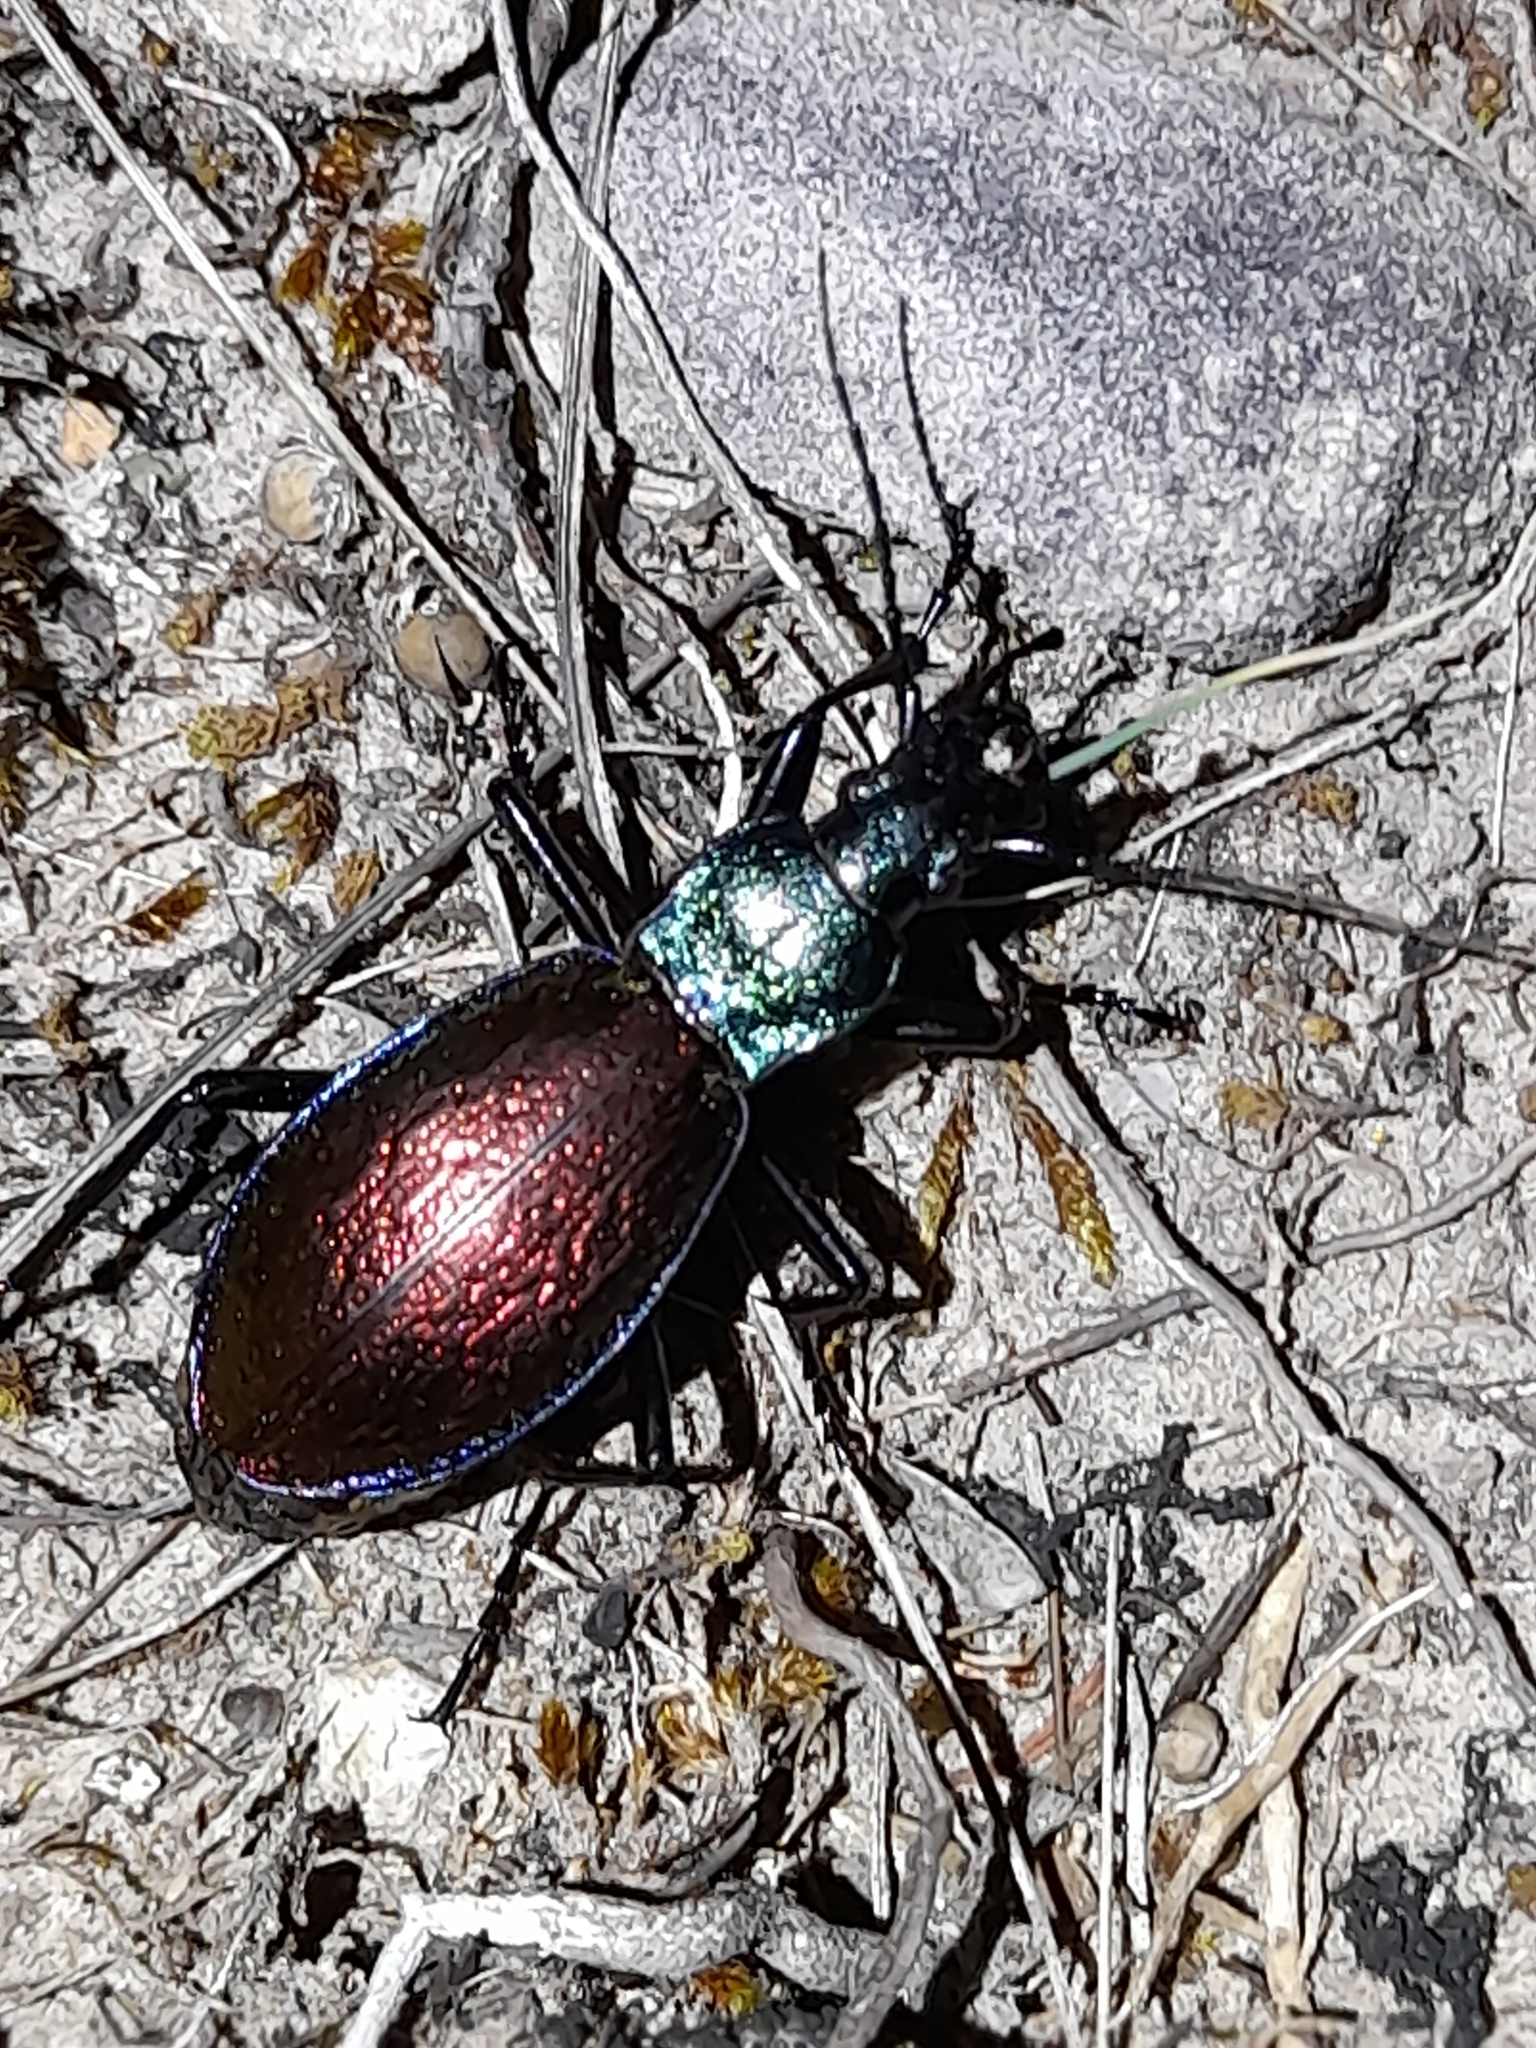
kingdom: Animalia
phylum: Arthropoda
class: Insecta
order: Coleoptera
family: Carabidae
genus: Carabus
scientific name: Carabus hispanus
